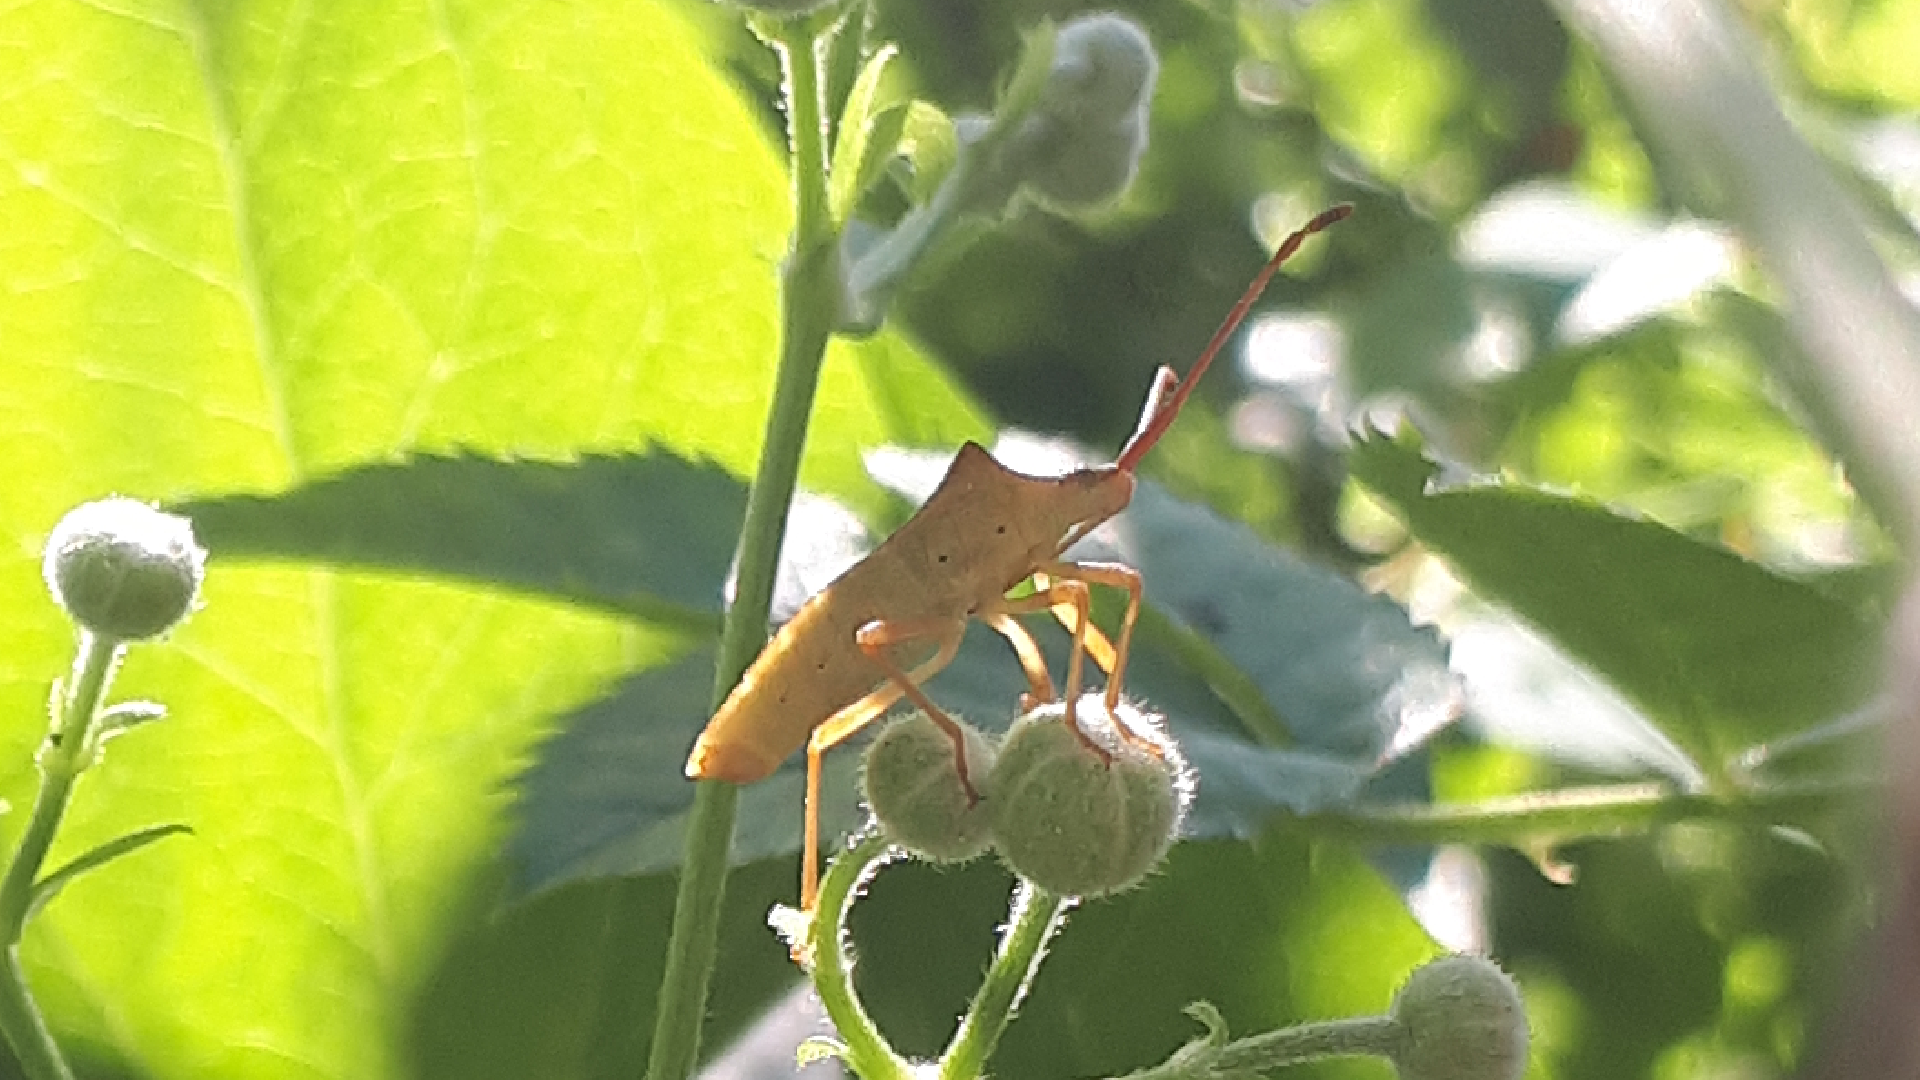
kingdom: Animalia
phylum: Arthropoda
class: Insecta
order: Hemiptera
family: Coreidae
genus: Gonocerus
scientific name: Gonocerus acuteangulatus
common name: Box bug
